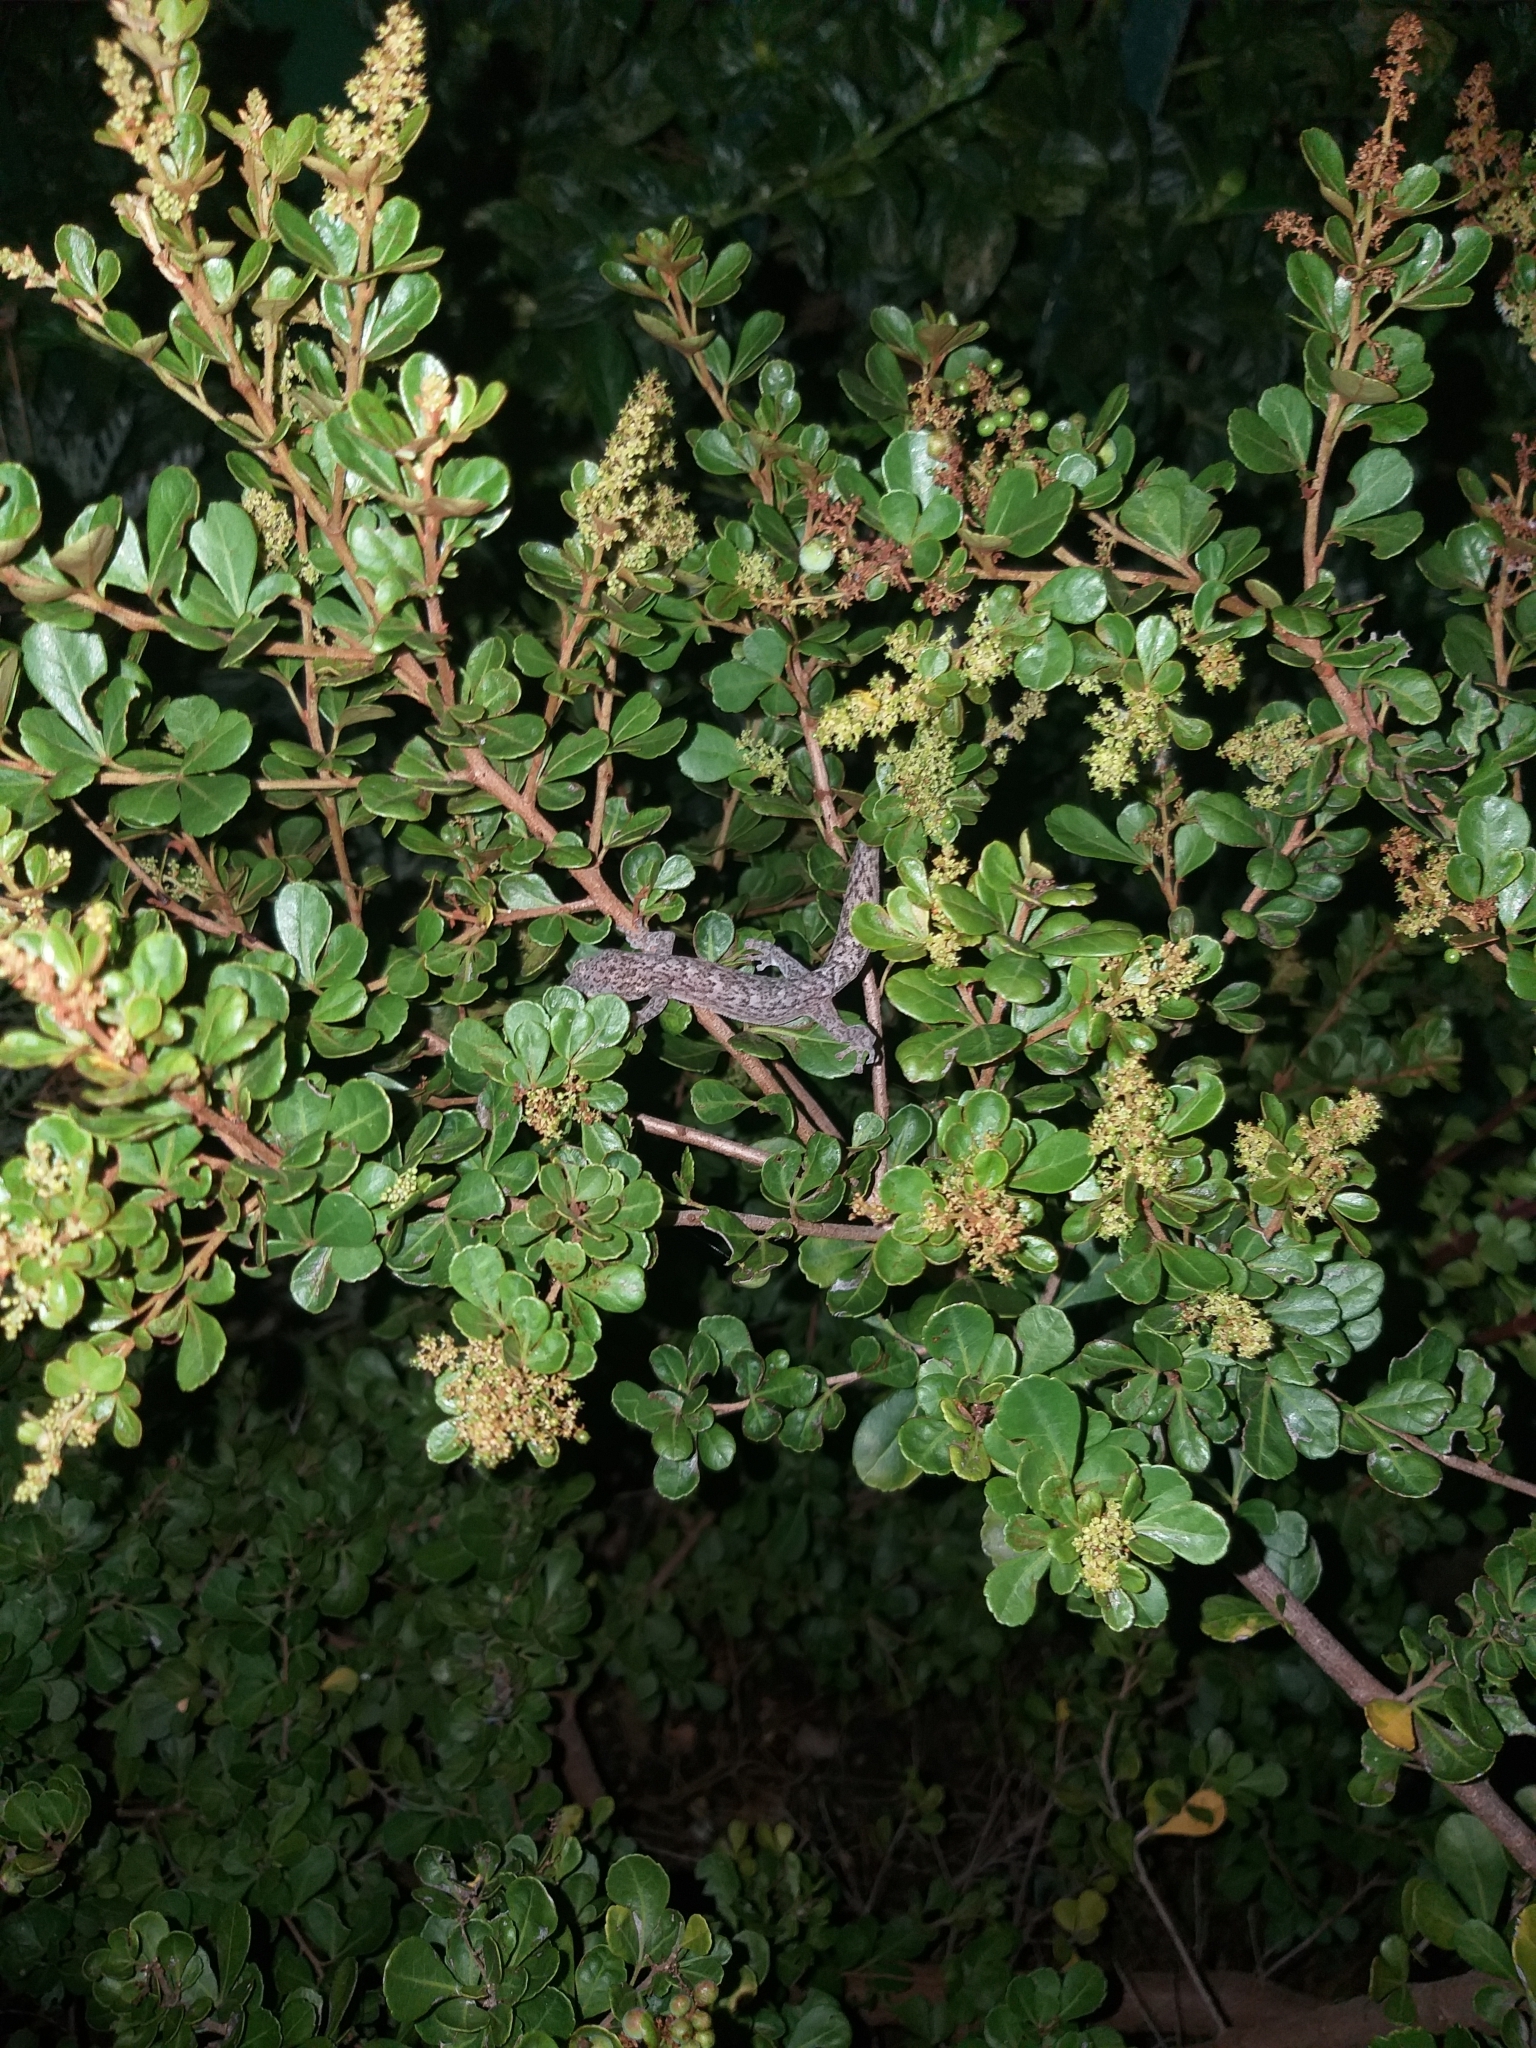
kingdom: Animalia
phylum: Chordata
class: Squamata
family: Gekkonidae
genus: Afrogecko
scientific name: Afrogecko porphyreus
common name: Marbled leaf-toed gecko
